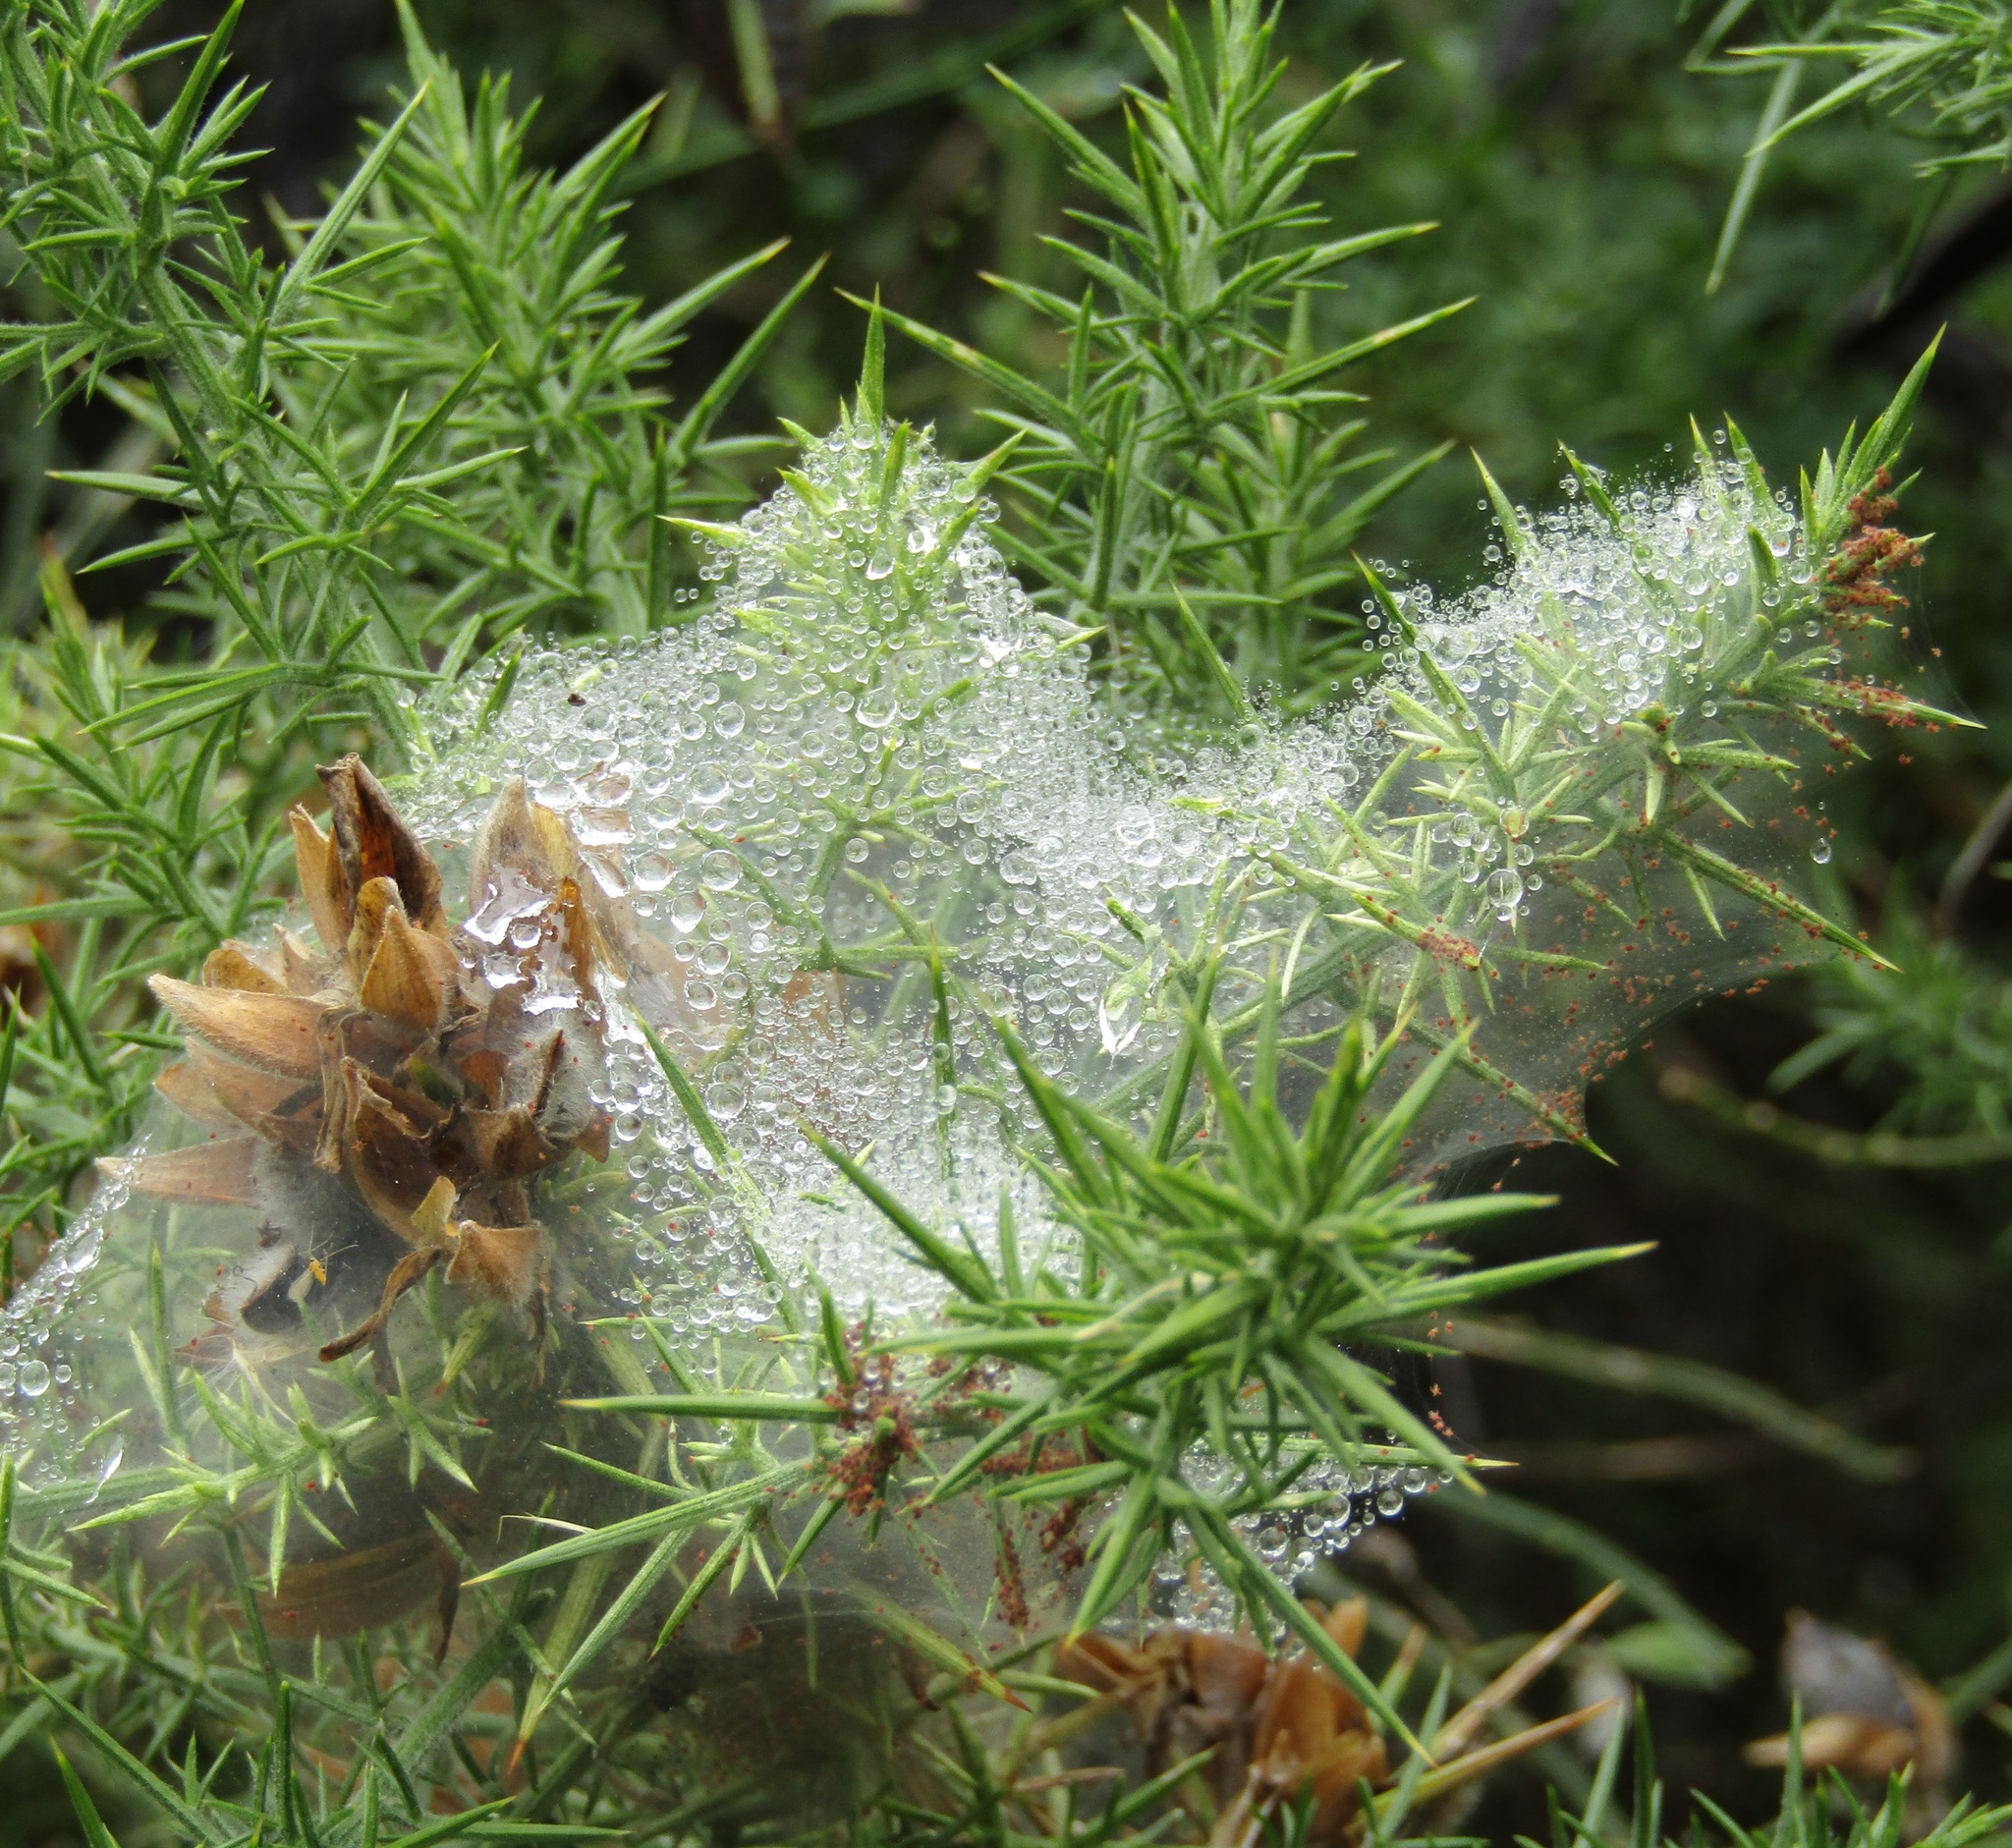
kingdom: Plantae
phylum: Tracheophyta
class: Magnoliopsida
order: Fabales
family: Fabaceae
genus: Ulex
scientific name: Ulex europaeus
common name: Common gorse
